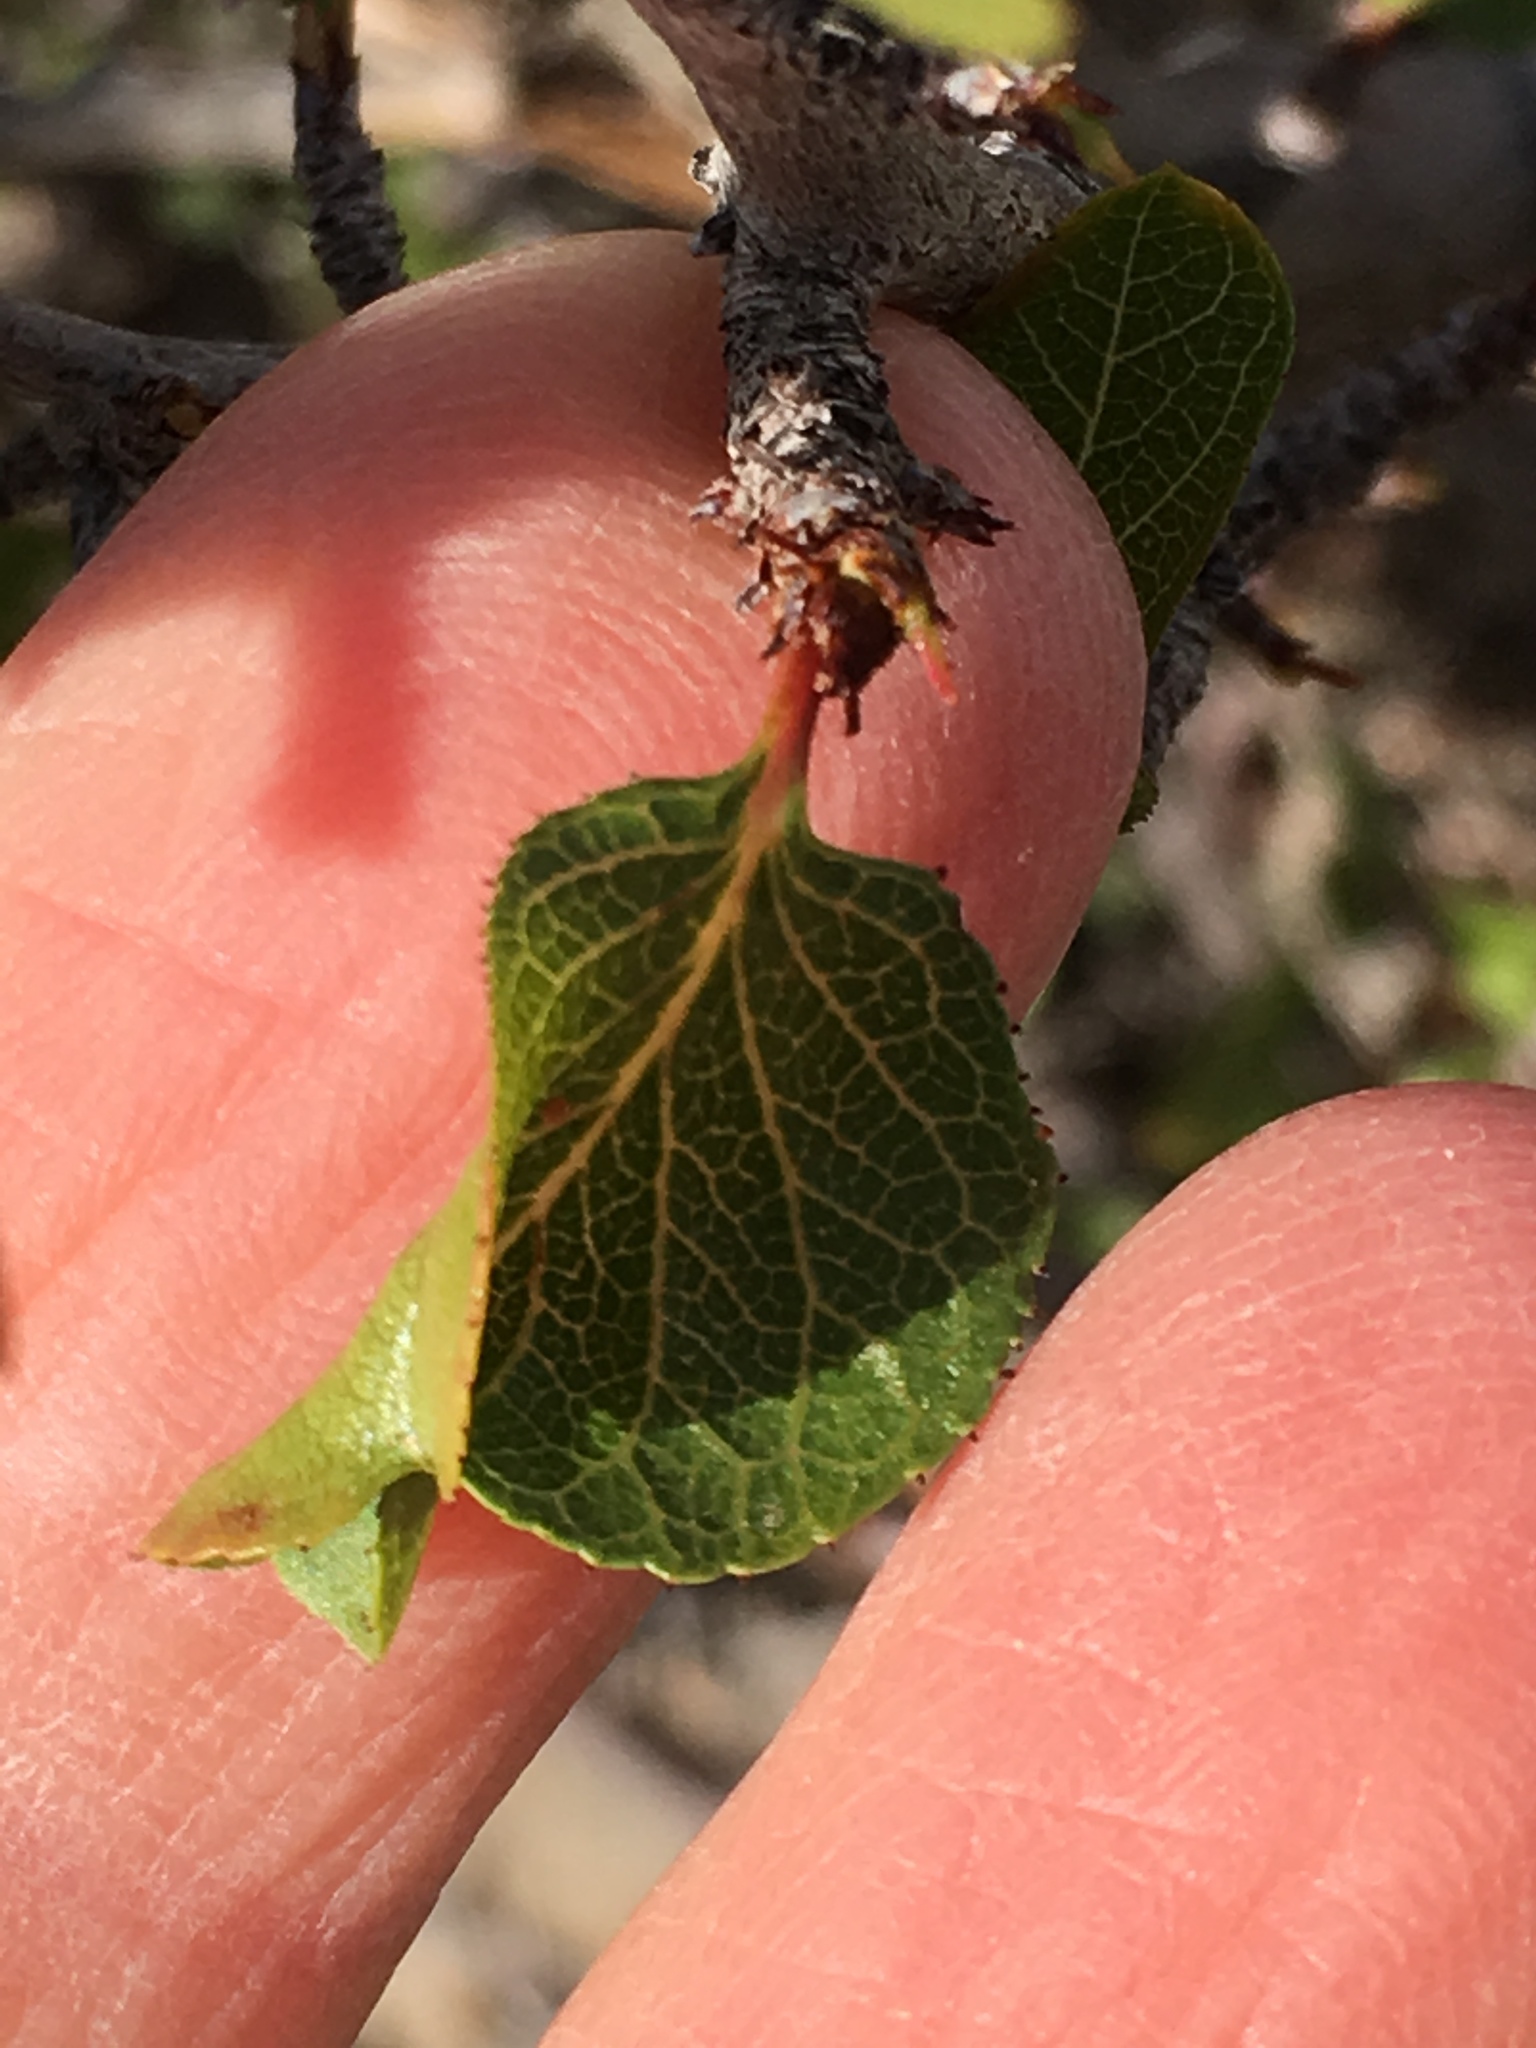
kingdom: Plantae
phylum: Tracheophyta
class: Magnoliopsida
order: Rosales
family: Rosaceae
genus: Prunus
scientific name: Prunus fremontii
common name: Desert apricot
